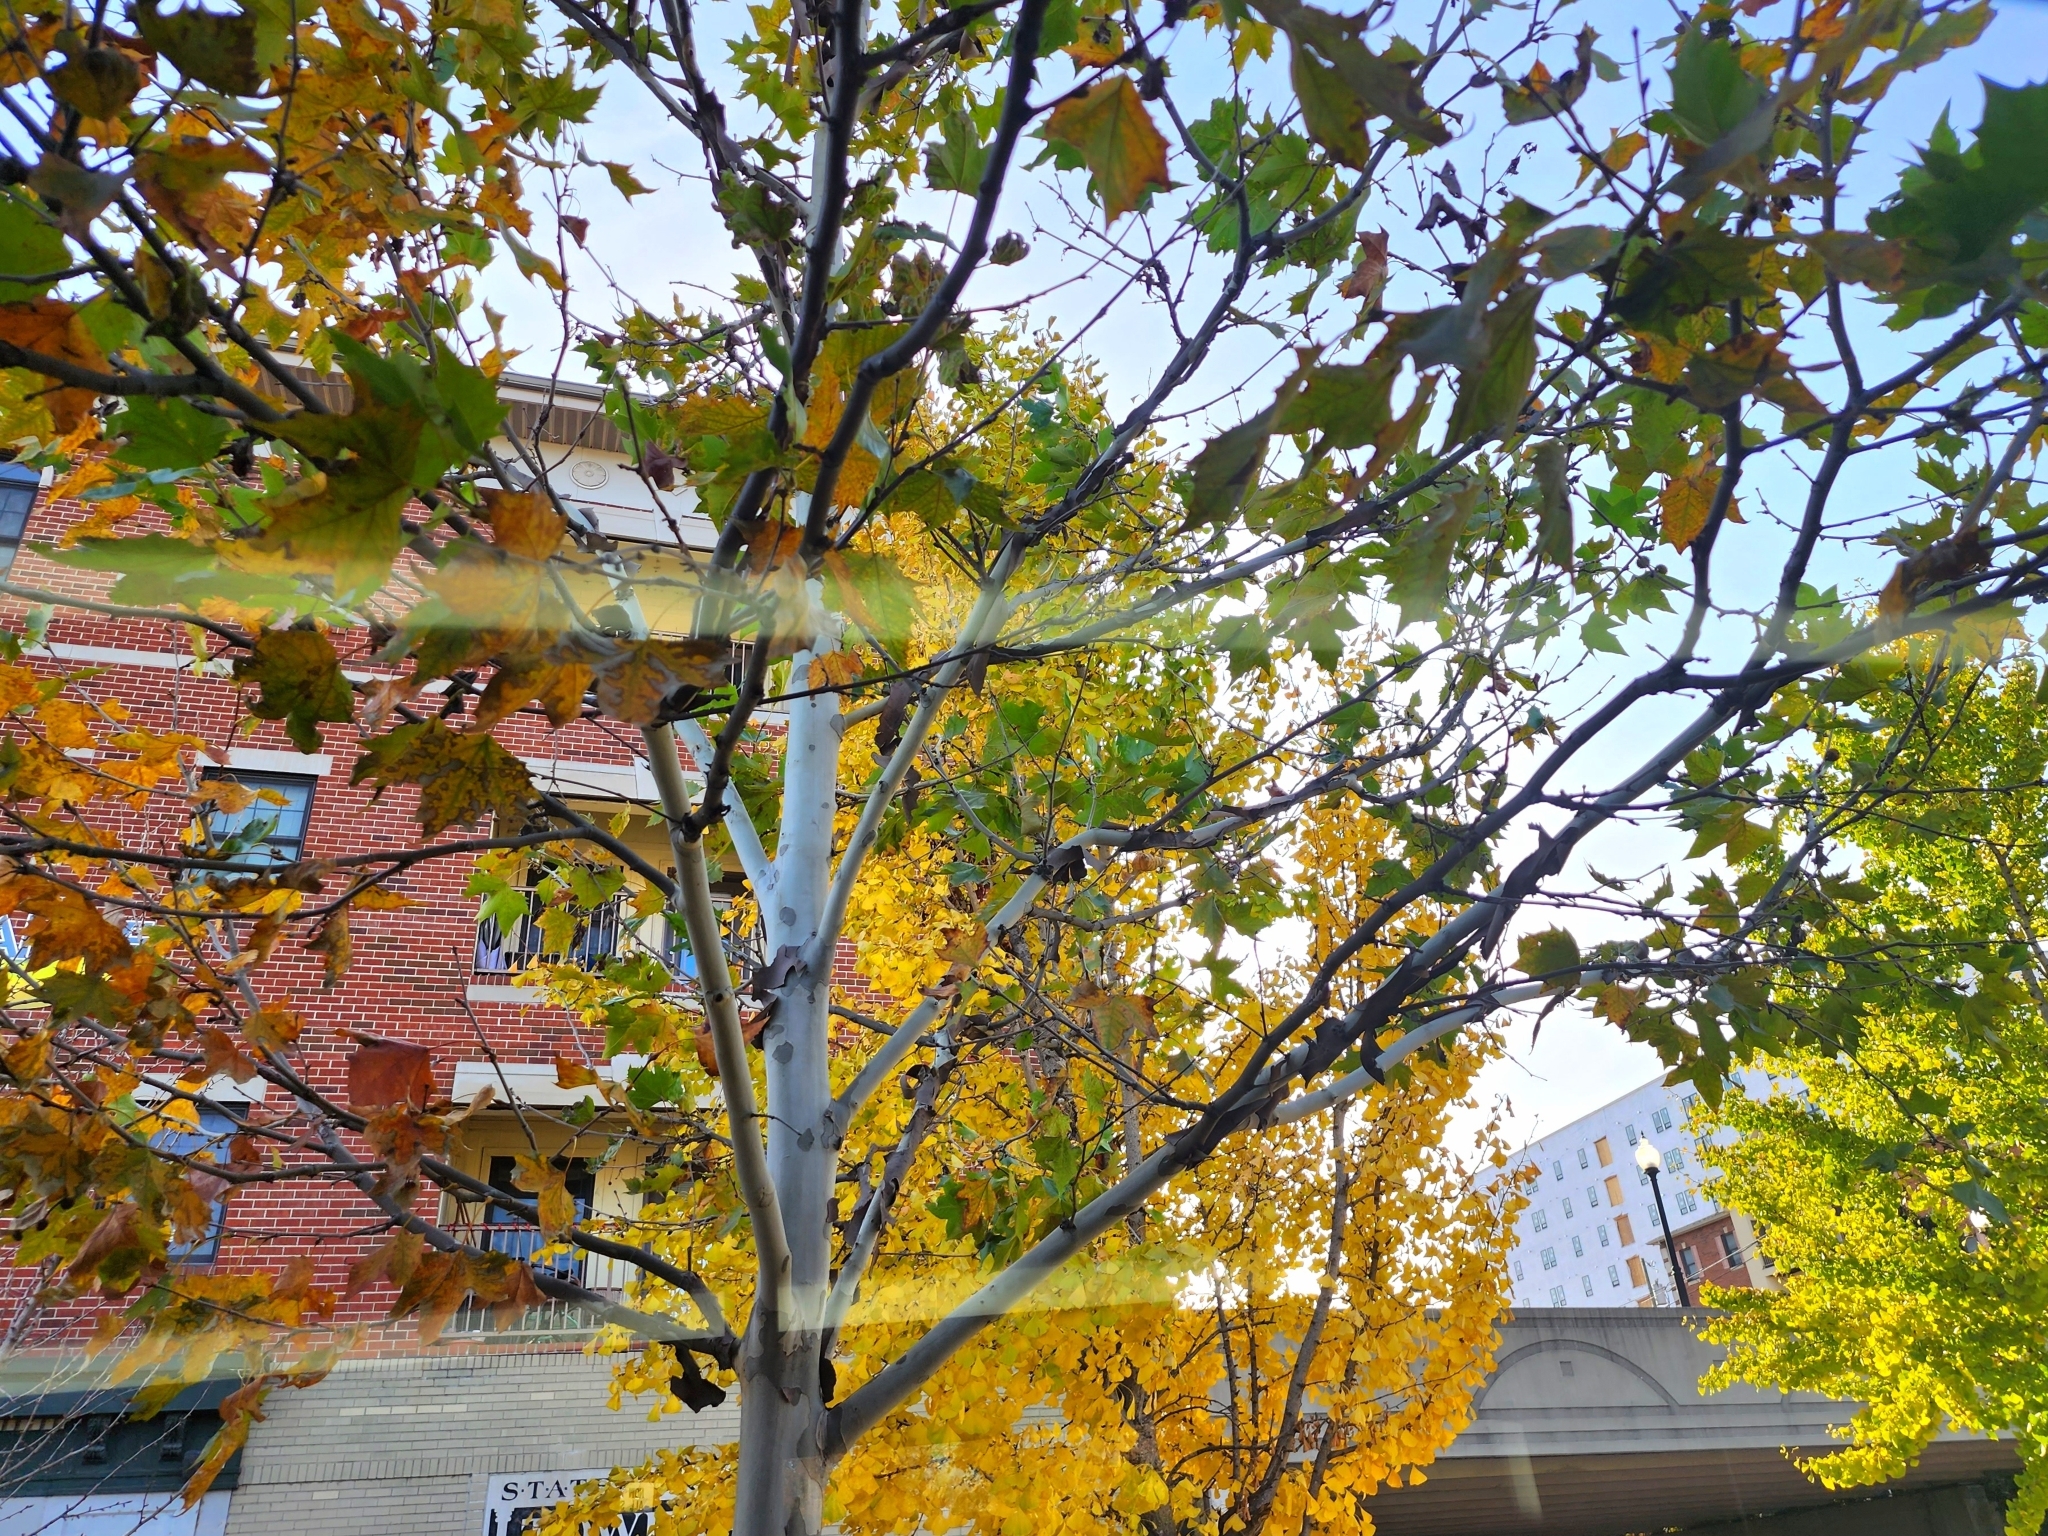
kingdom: Plantae
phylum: Tracheophyta
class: Magnoliopsida
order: Proteales
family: Platanaceae
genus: Platanus
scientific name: Platanus occidentalis
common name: American sycamore
